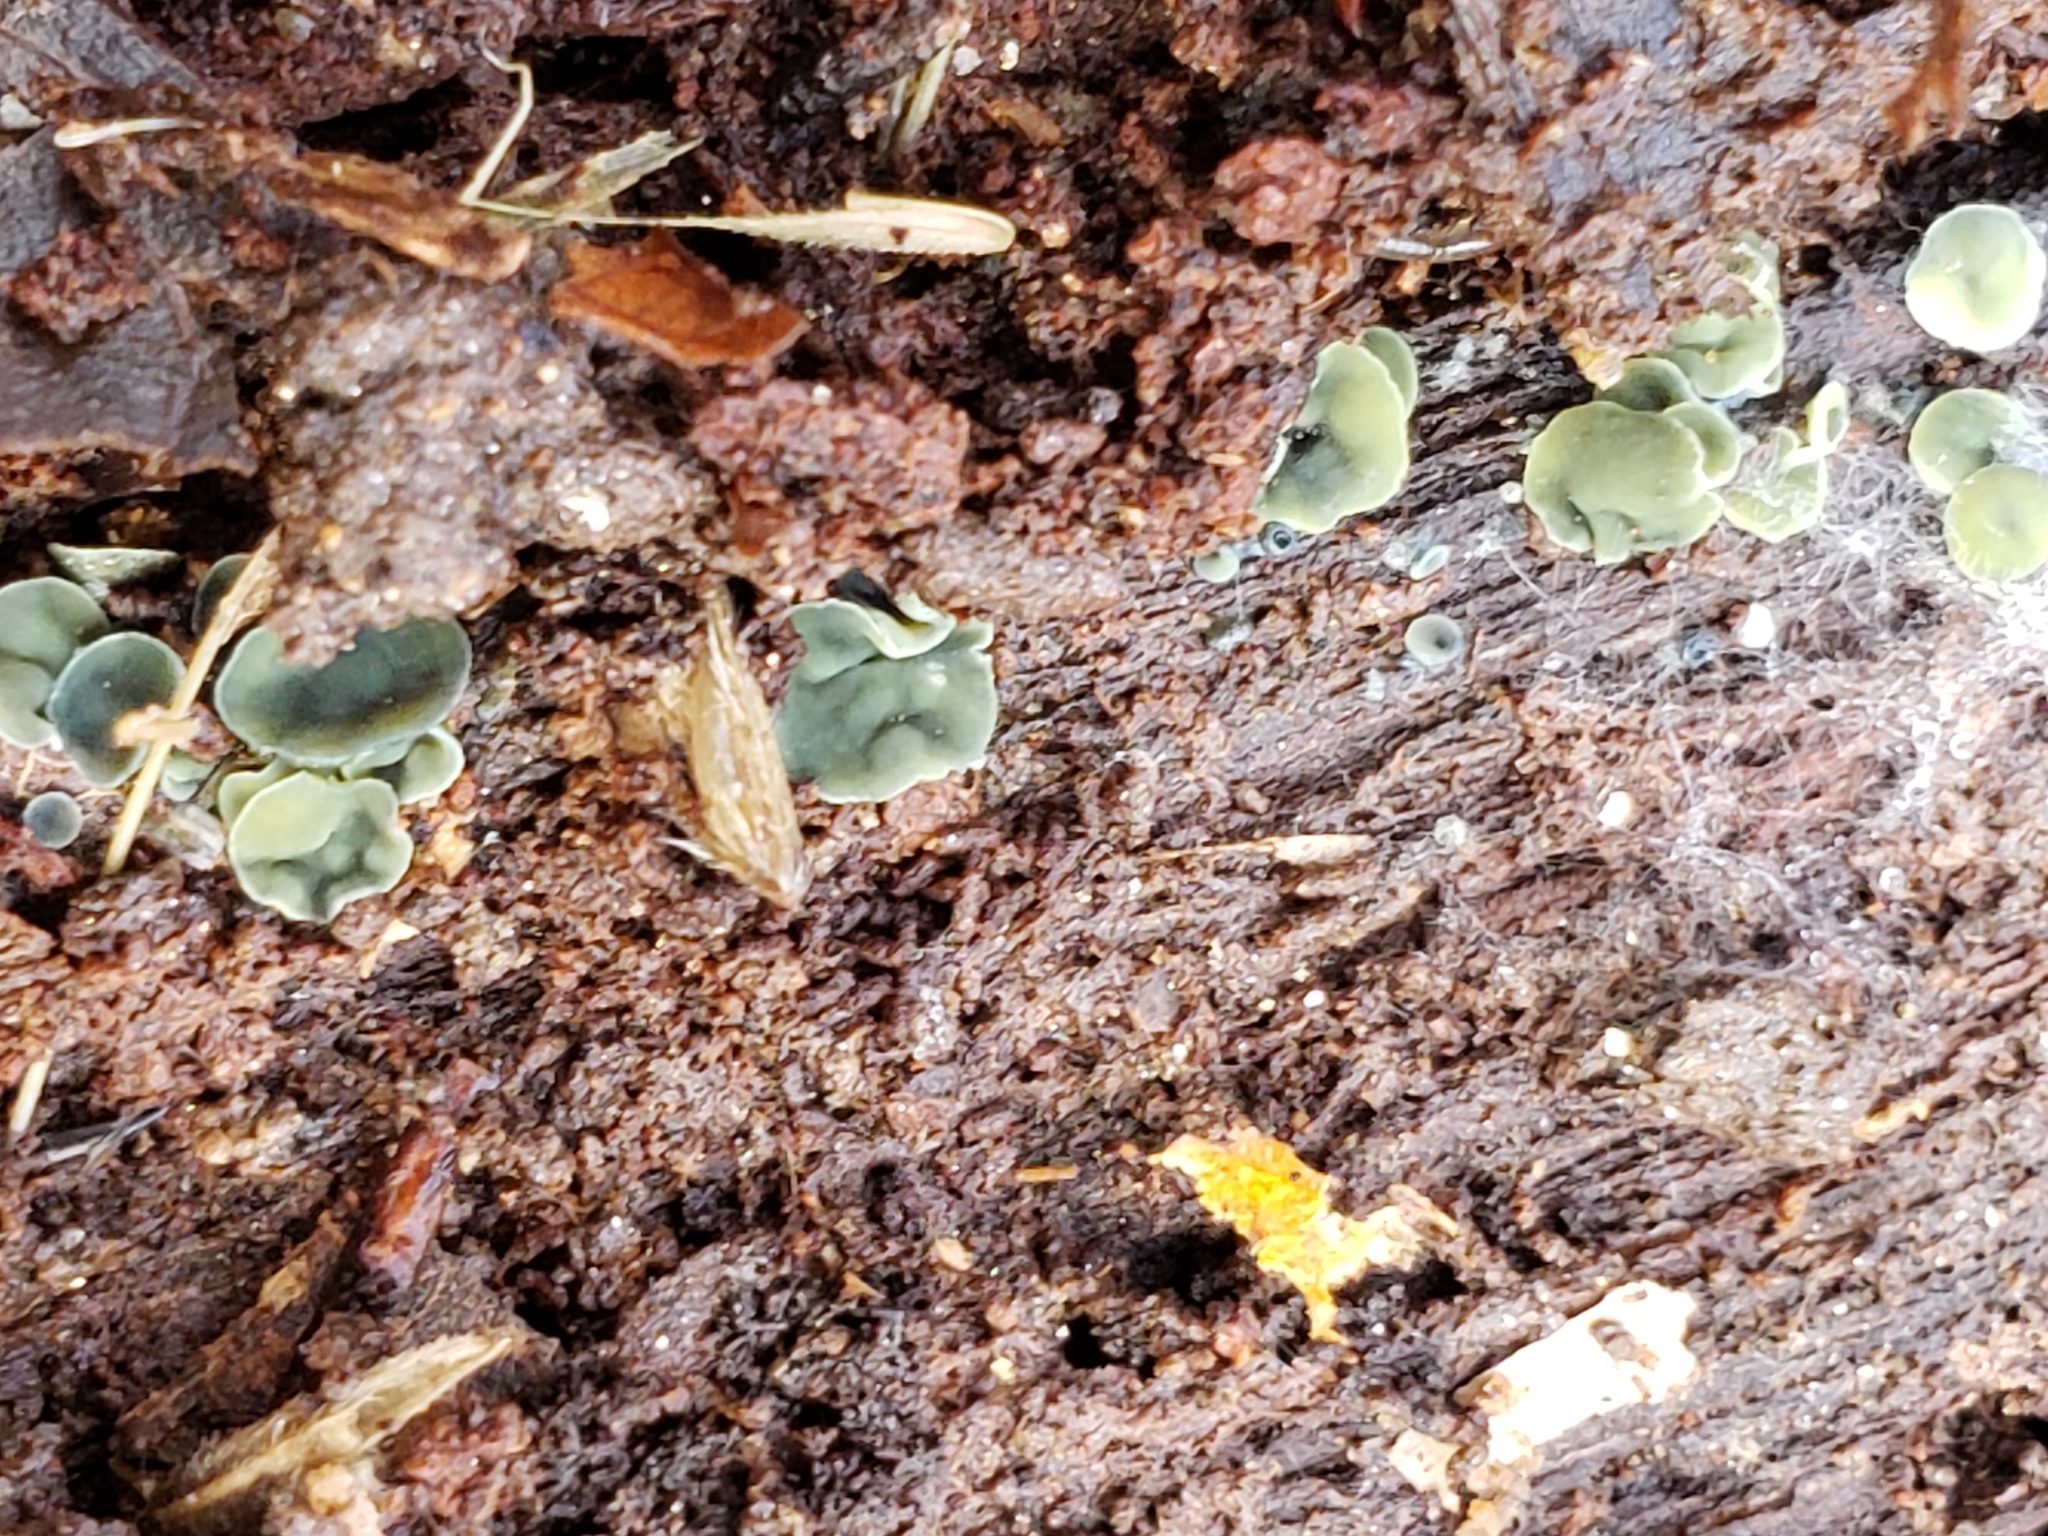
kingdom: Fungi
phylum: Ascomycota
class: Leotiomycetes
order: Helotiales
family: Chlorospleniaceae
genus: Chlorosplenium
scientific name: Chlorosplenium chlora
